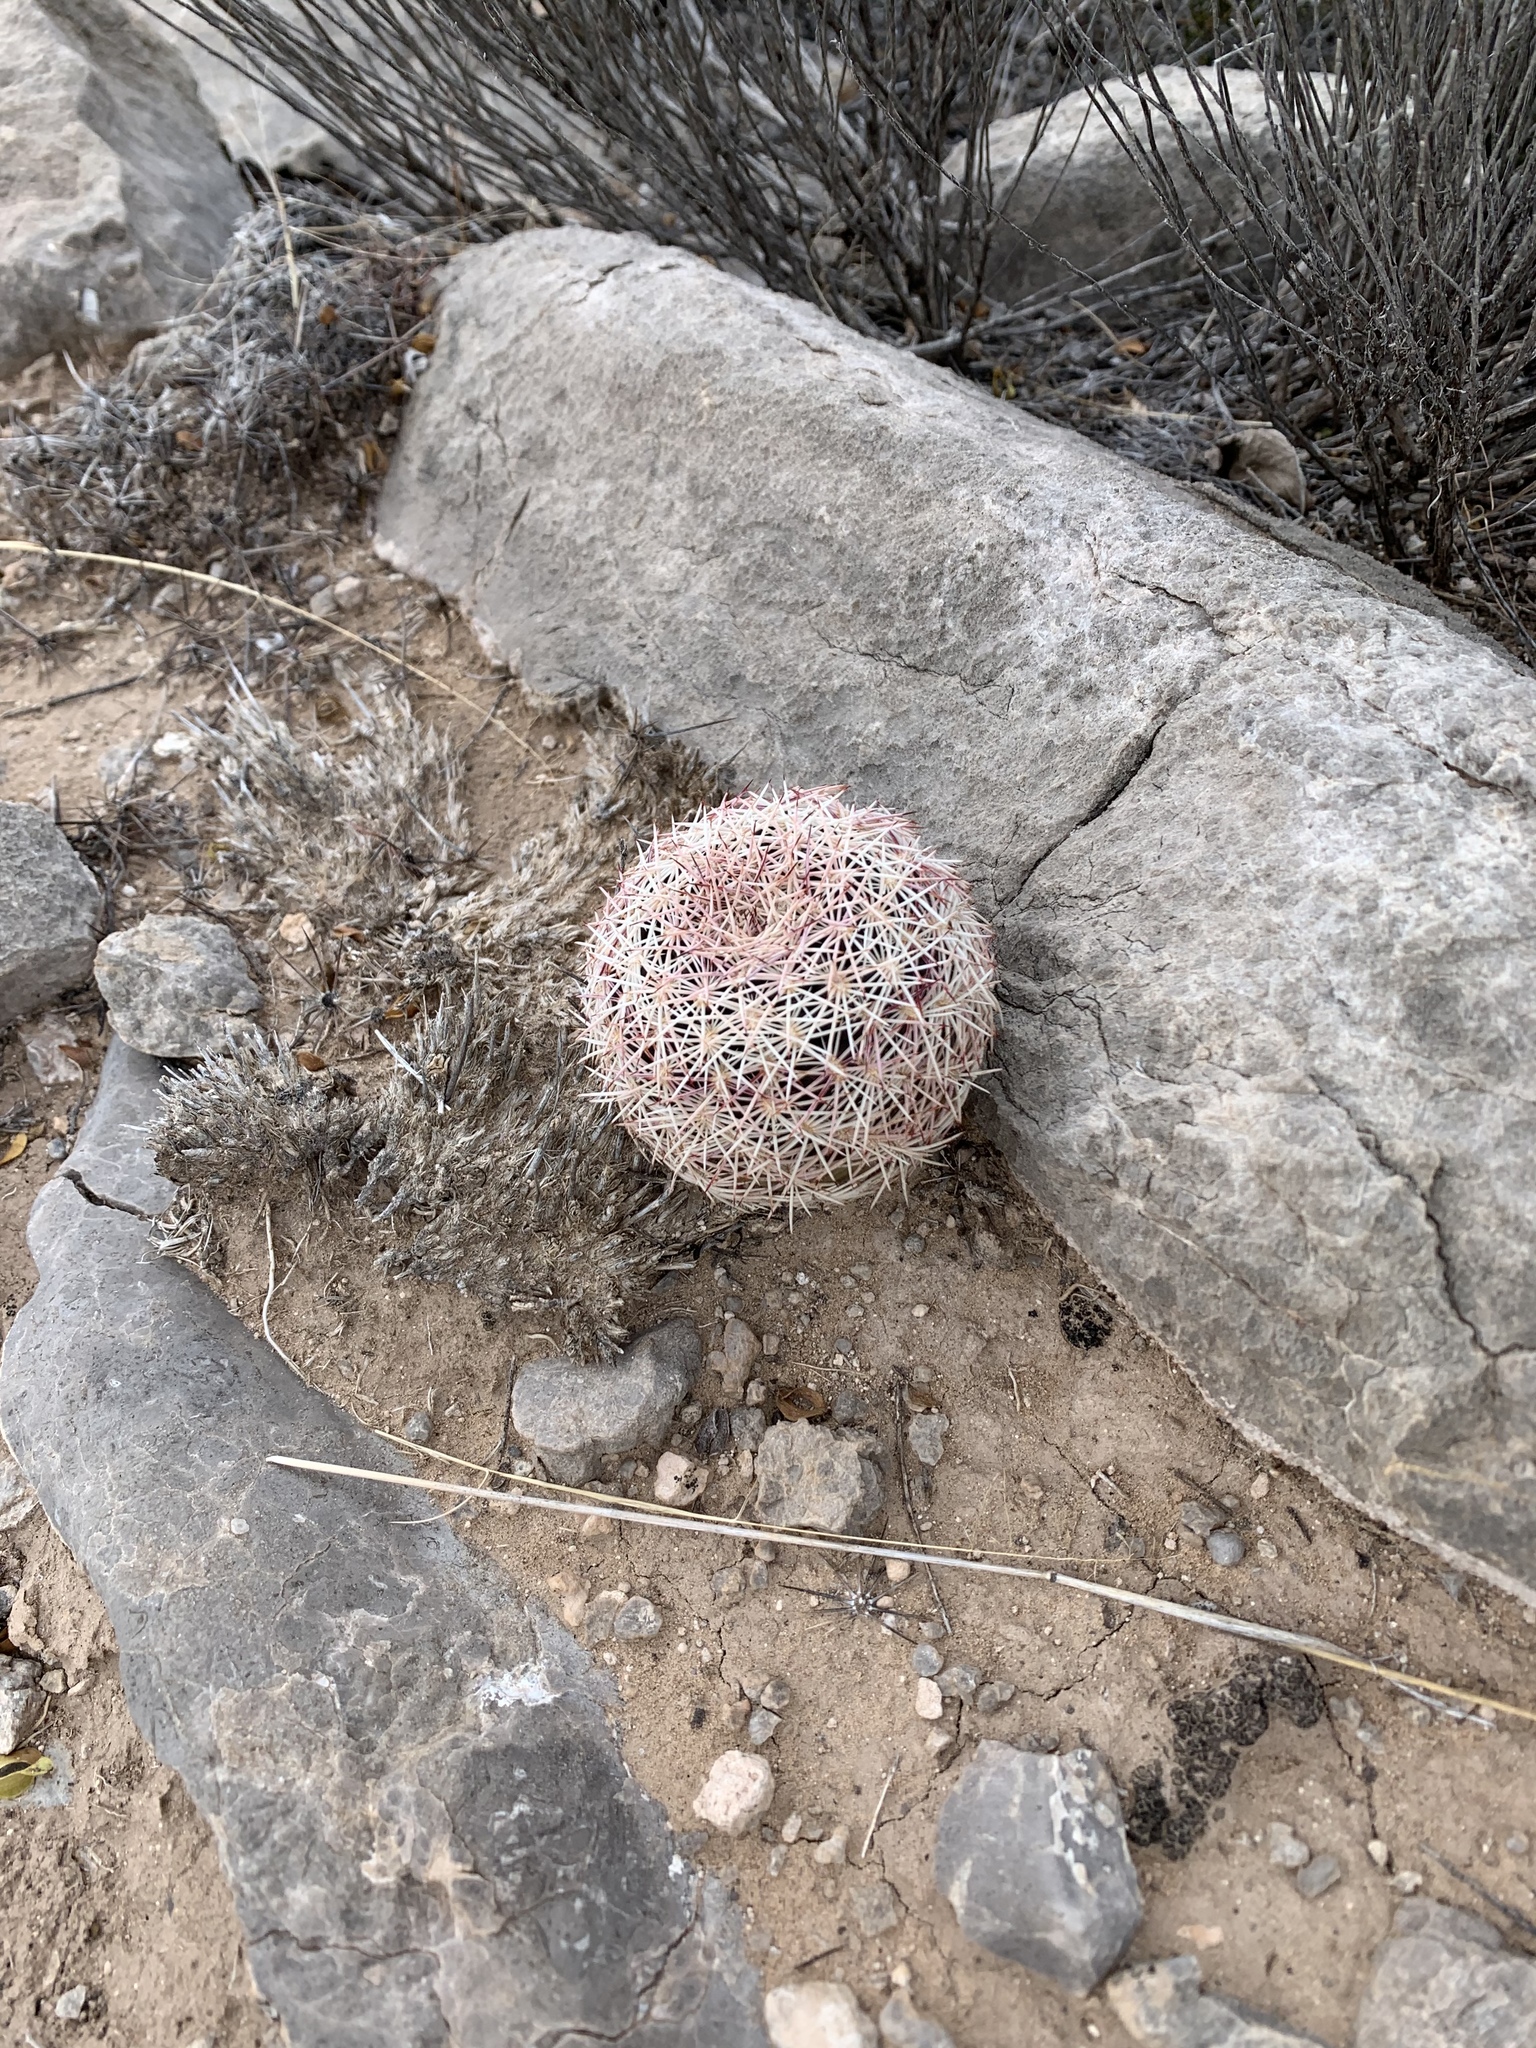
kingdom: Plantae
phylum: Tracheophyta
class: Magnoliopsida
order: Caryophyllales
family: Cactaceae
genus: Echinocereus
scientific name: Echinocereus viridiflorus
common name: Nylon hedgehog cactus
